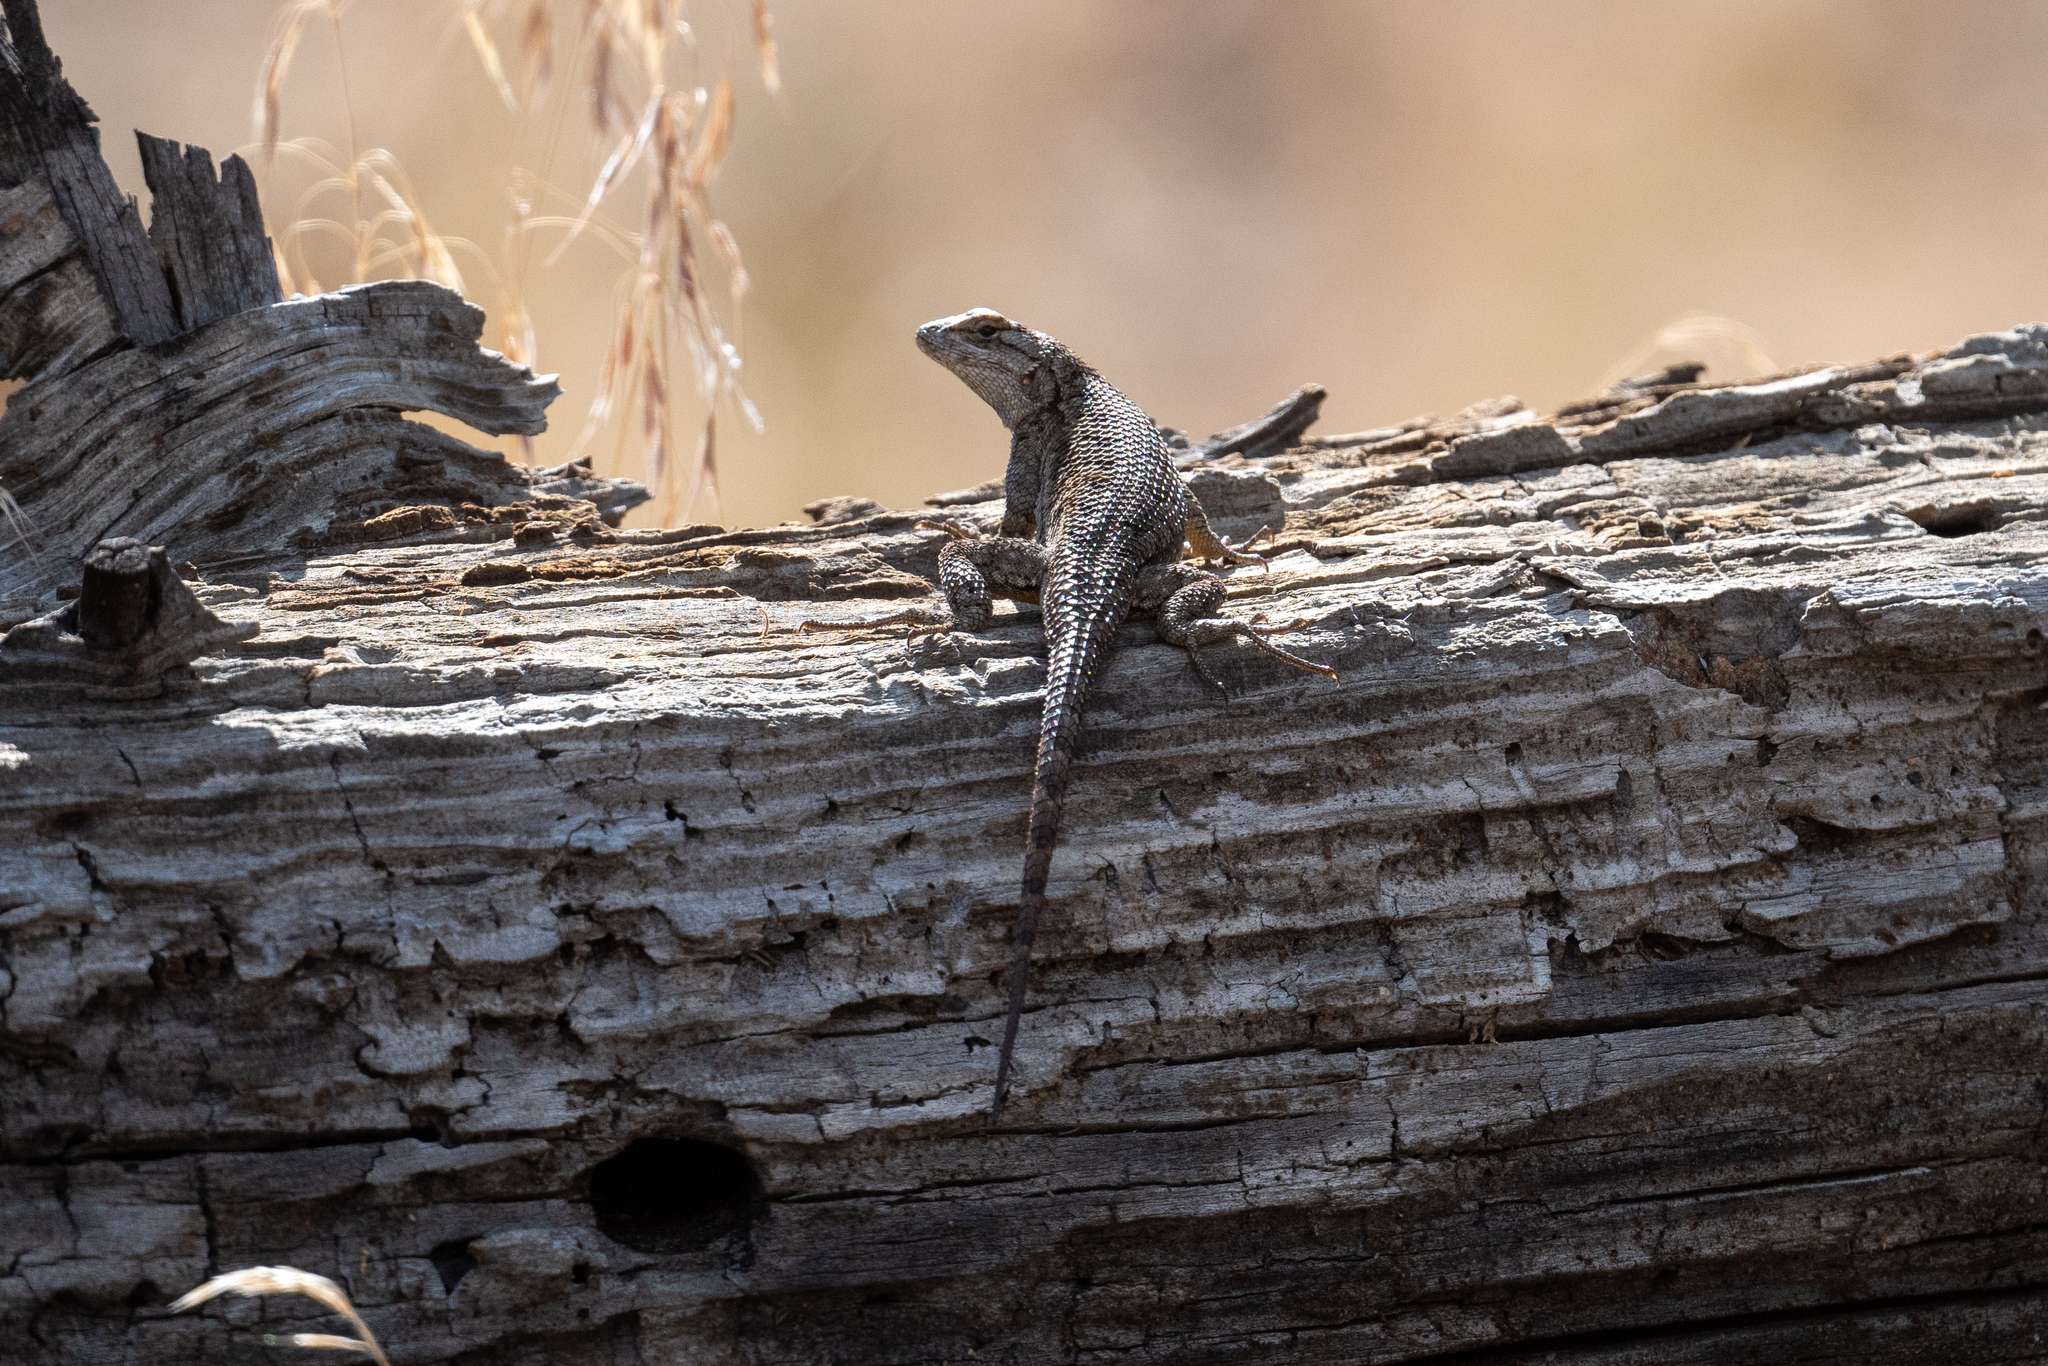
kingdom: Animalia
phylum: Chordata
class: Squamata
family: Phrynosomatidae
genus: Sceloporus
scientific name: Sceloporus occidentalis
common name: Western fence lizard
